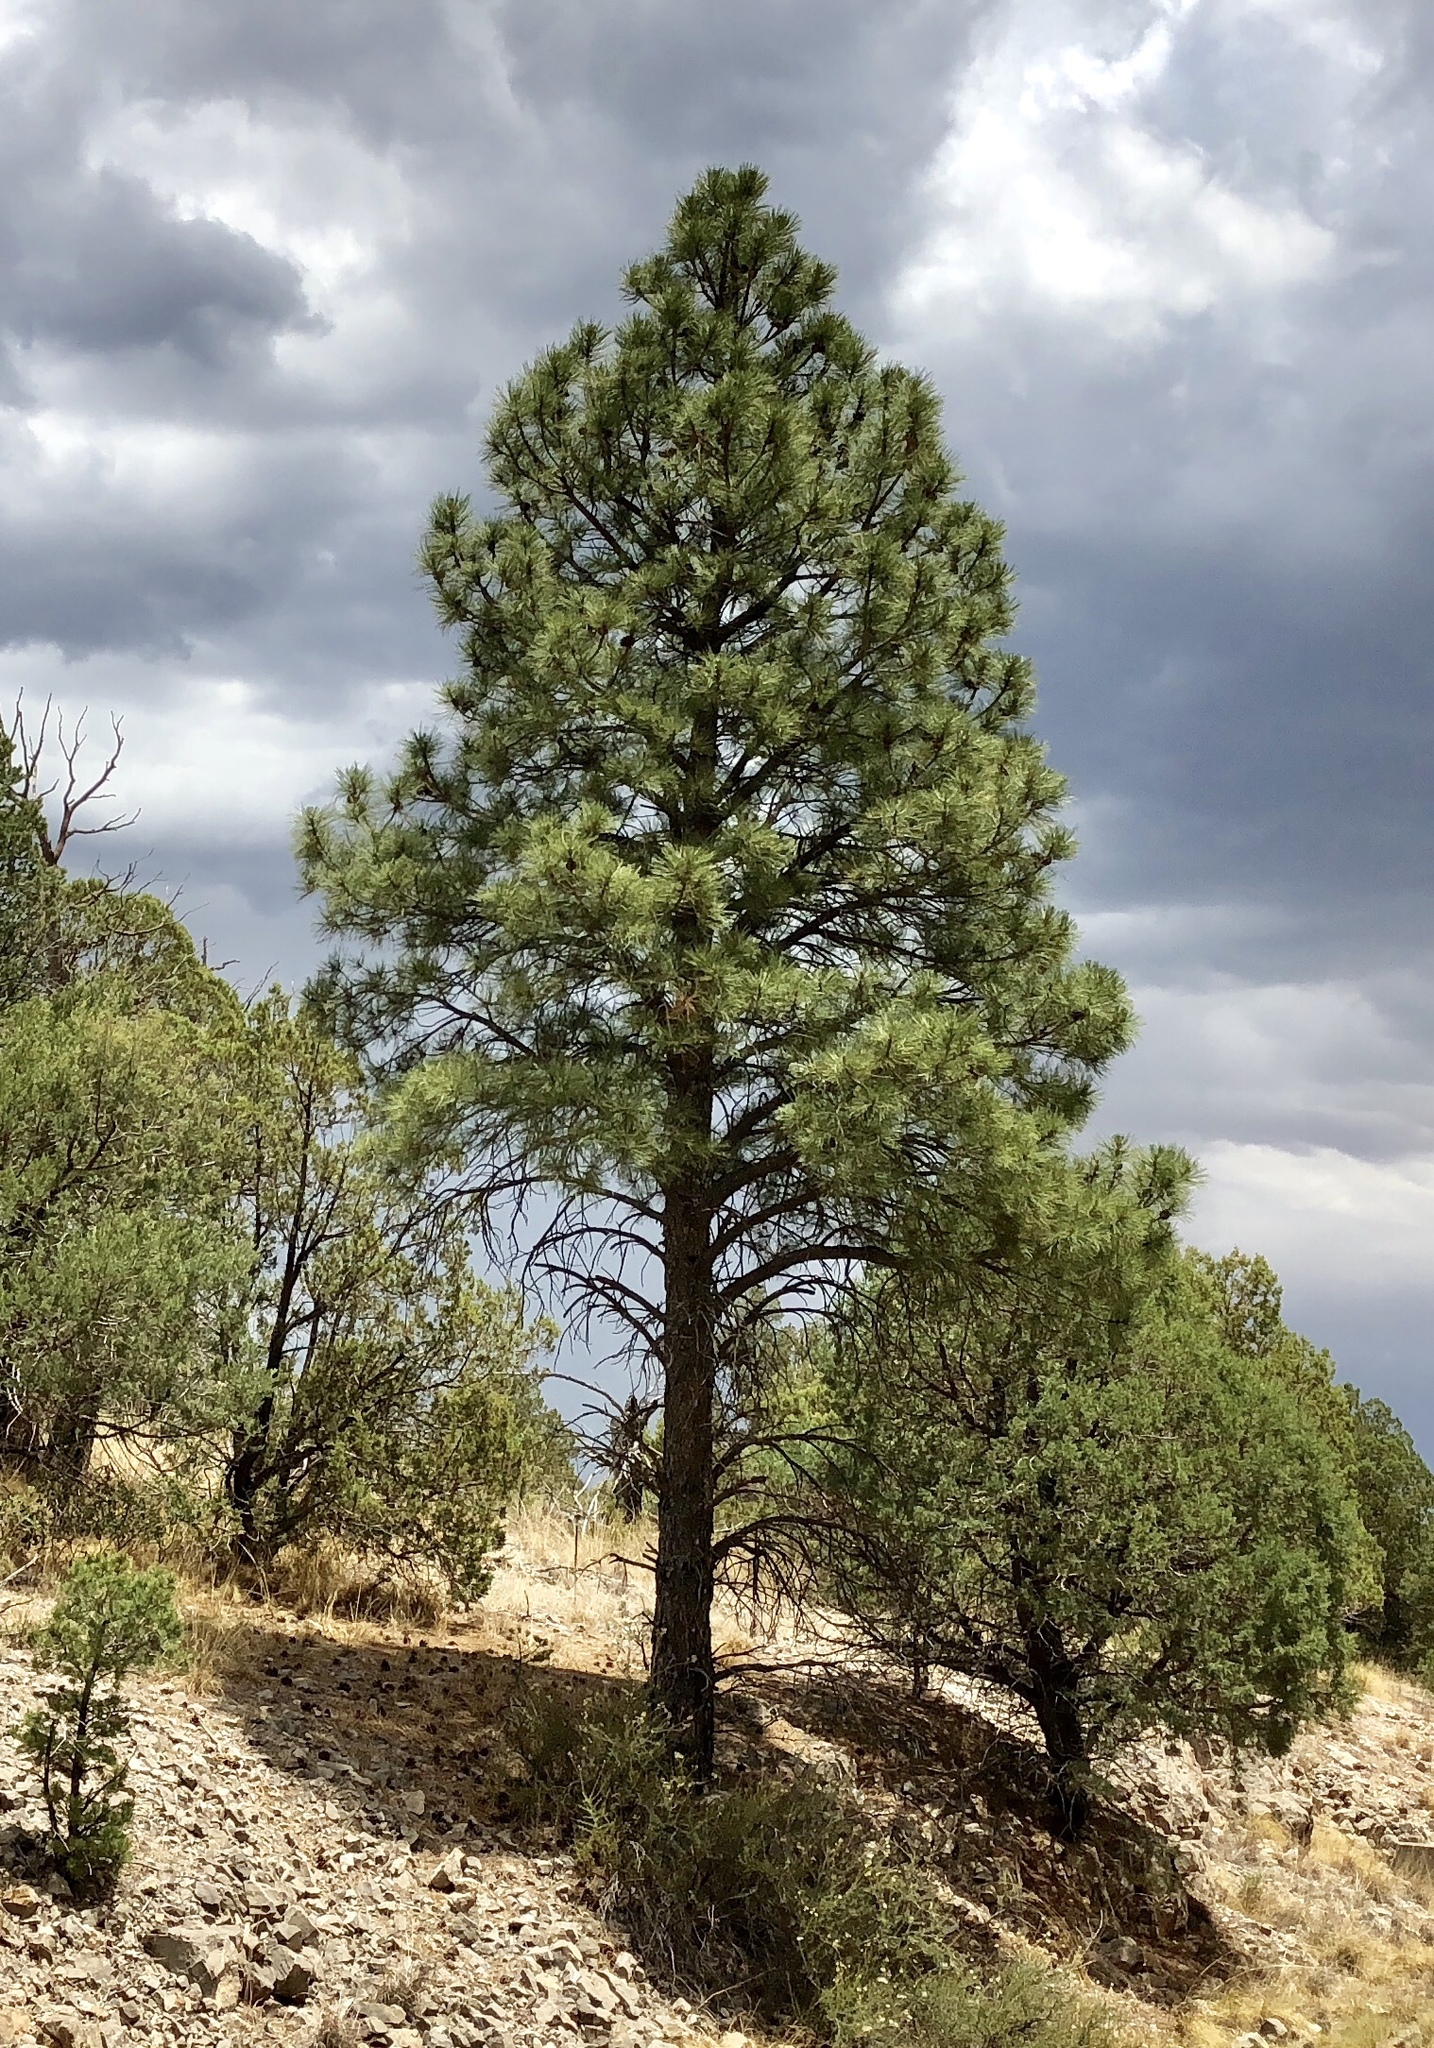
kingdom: Plantae
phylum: Tracheophyta
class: Pinopsida
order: Pinales
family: Pinaceae
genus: Pinus
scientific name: Pinus ponderosa
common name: Western yellow-pine
